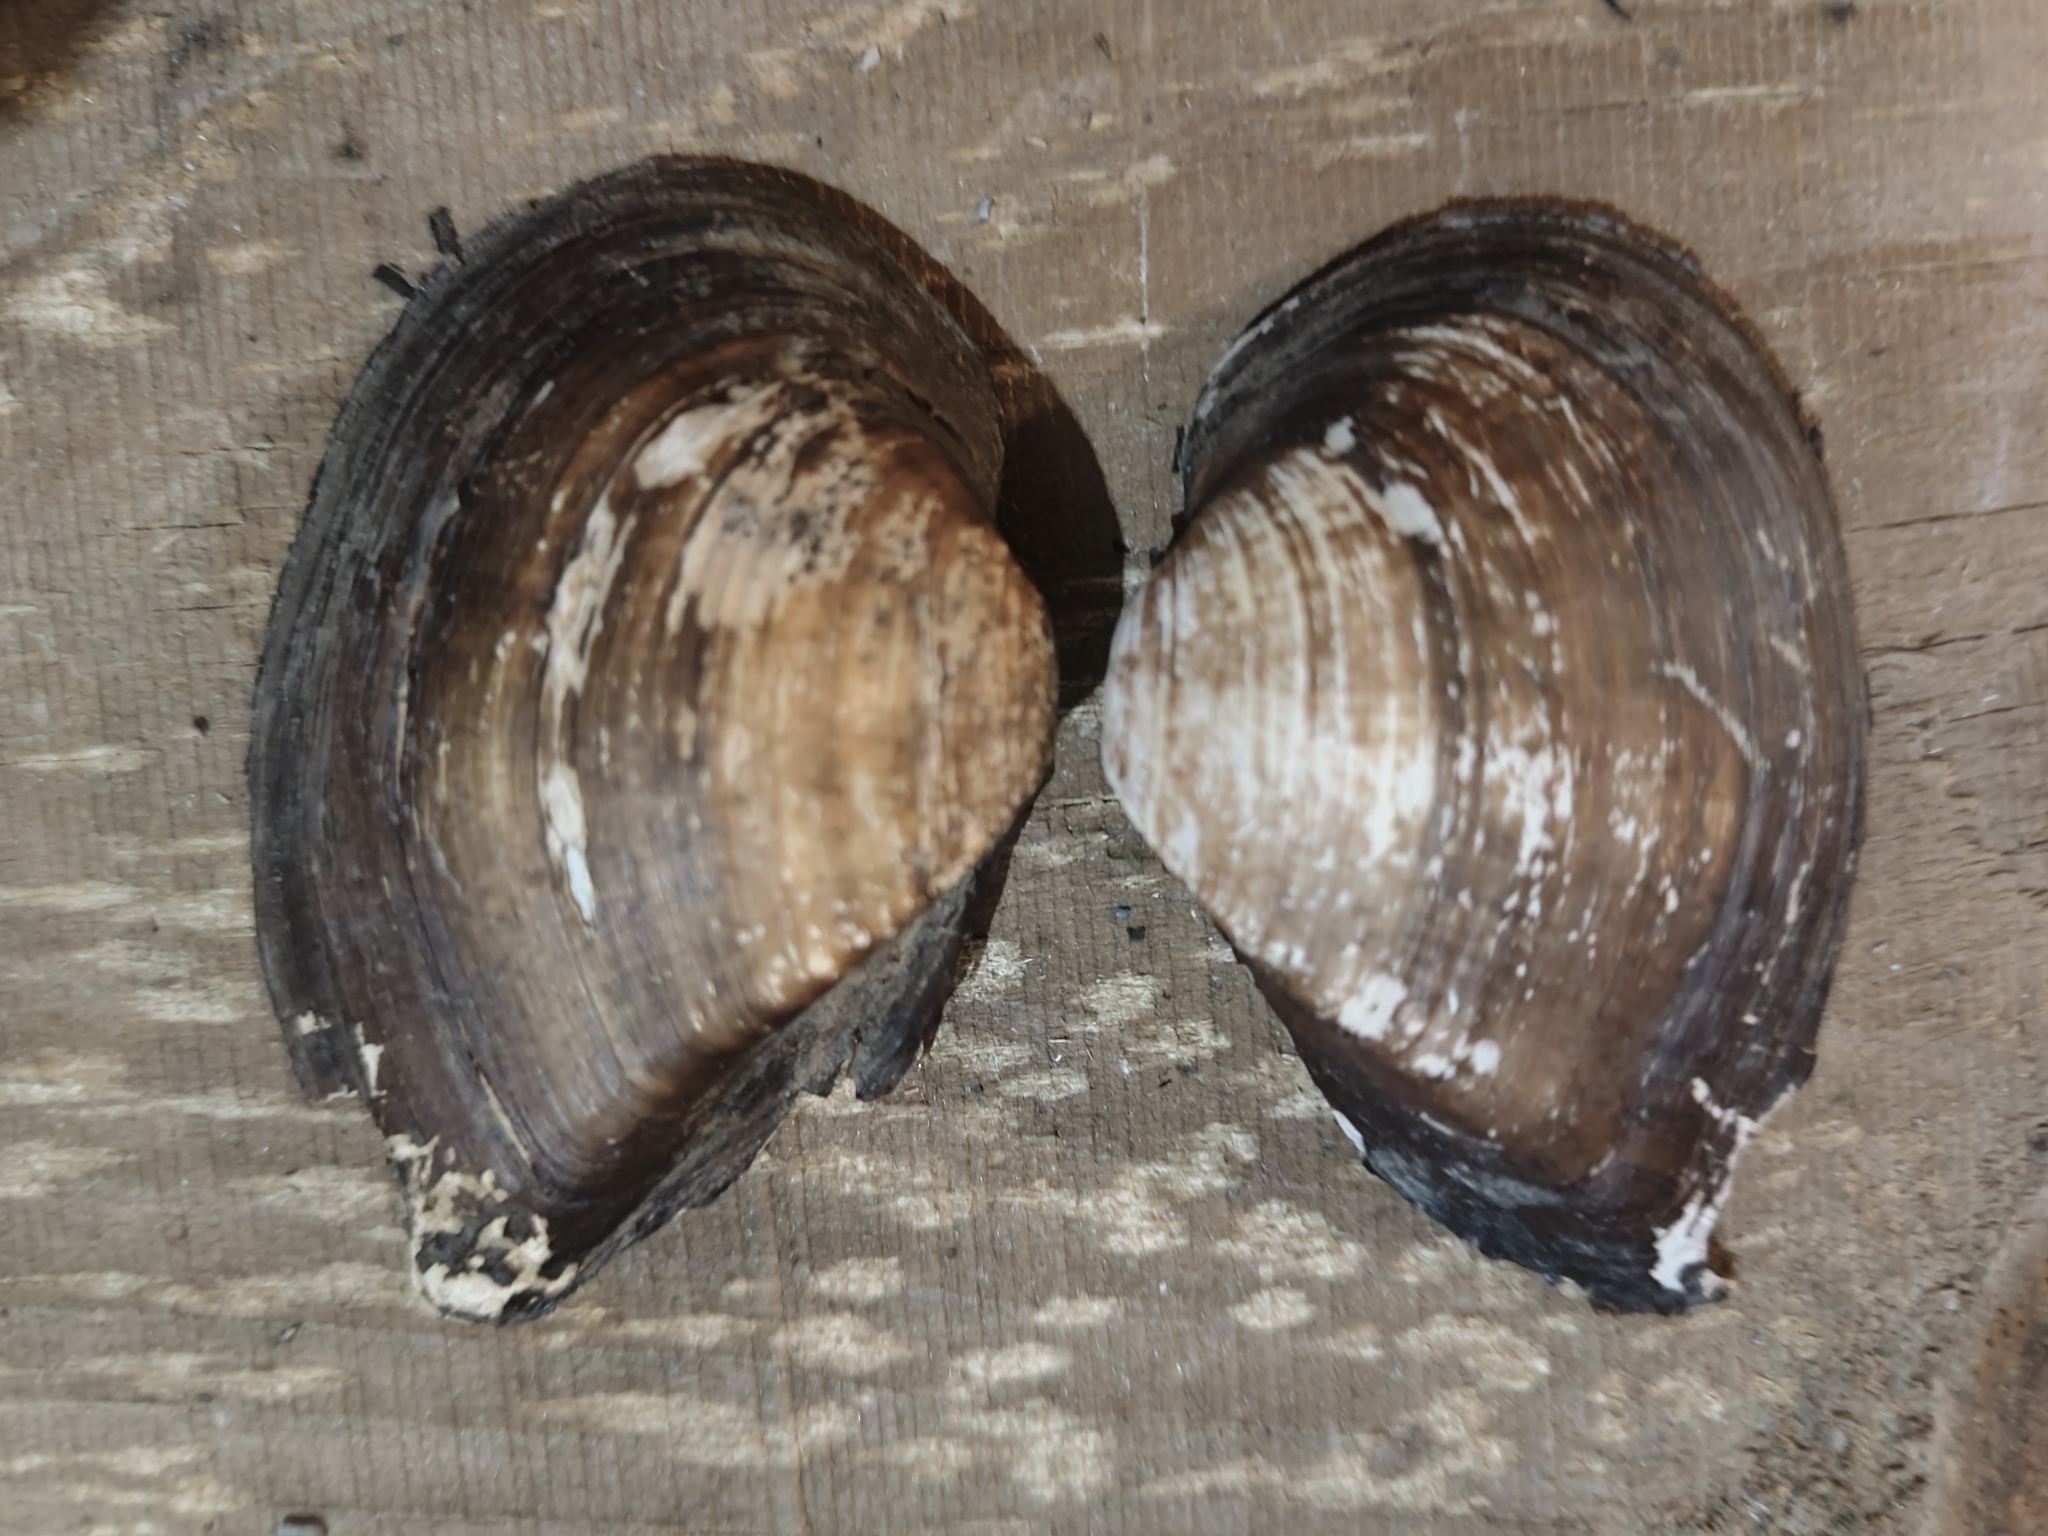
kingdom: Animalia
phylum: Mollusca
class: Bivalvia
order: Unionida
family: Unionidae
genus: Truncilla
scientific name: Truncilla truncata
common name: Deertoe
